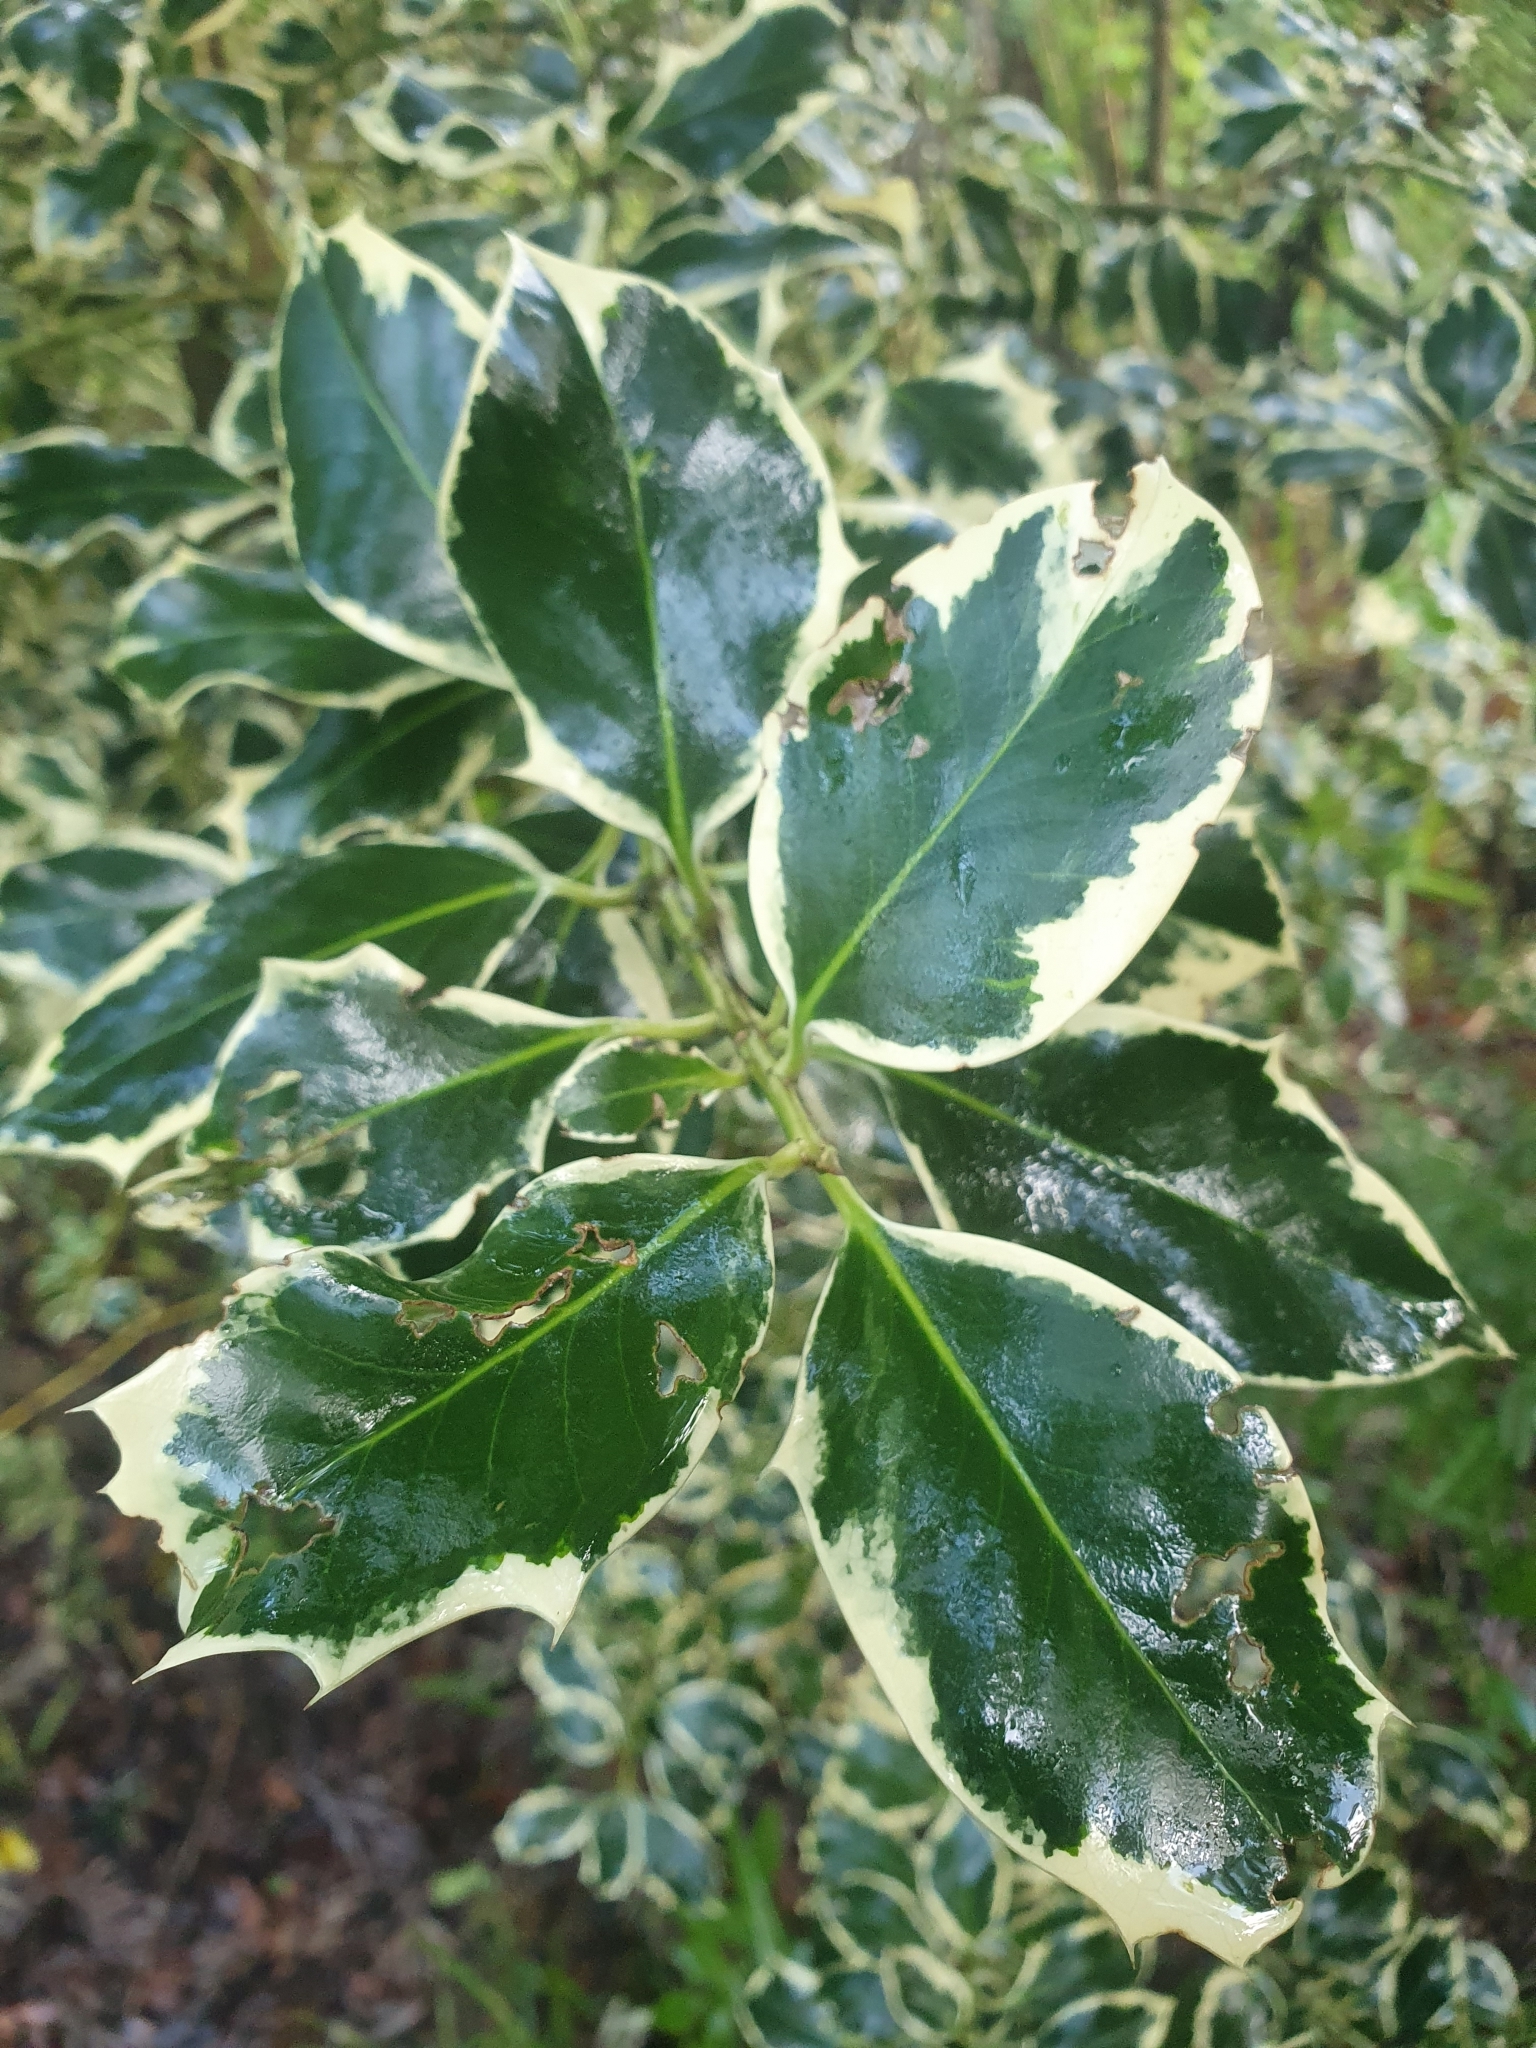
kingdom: Plantae
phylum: Tracheophyta
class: Magnoliopsida
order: Aquifoliales
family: Aquifoliaceae
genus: Ilex
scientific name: Ilex aquifolium
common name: English holly
